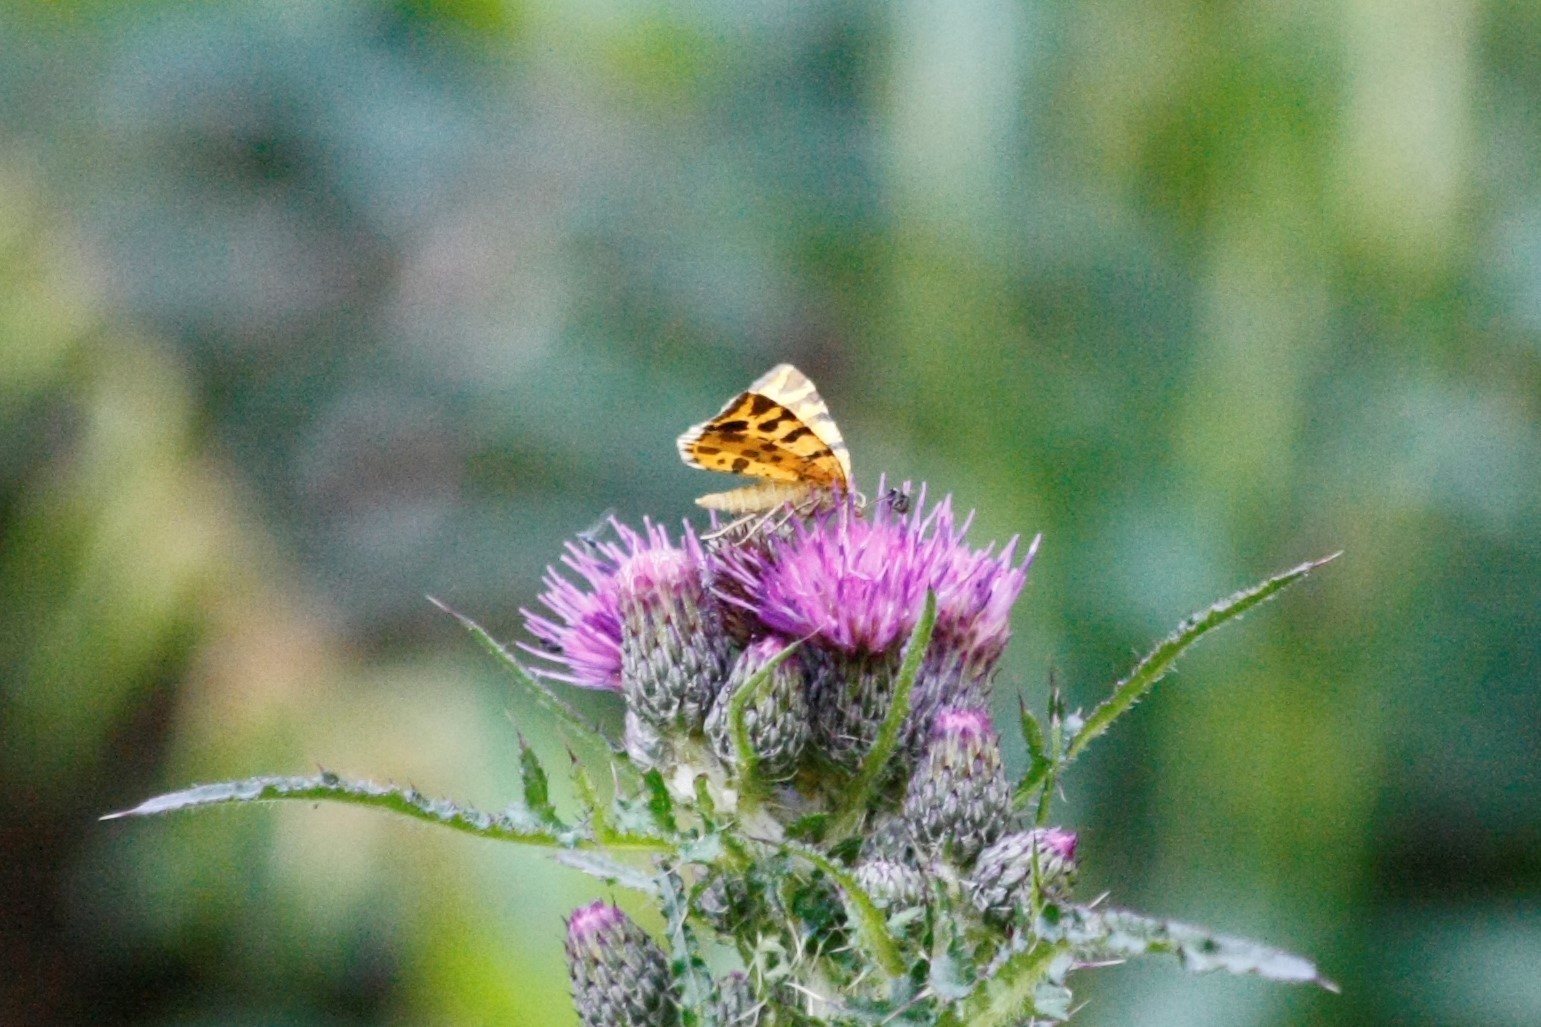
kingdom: Animalia
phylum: Arthropoda
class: Insecta
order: Lepidoptera
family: Geometridae
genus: Pseudopanthera
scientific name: Pseudopanthera macularia
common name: Speckled yellow
